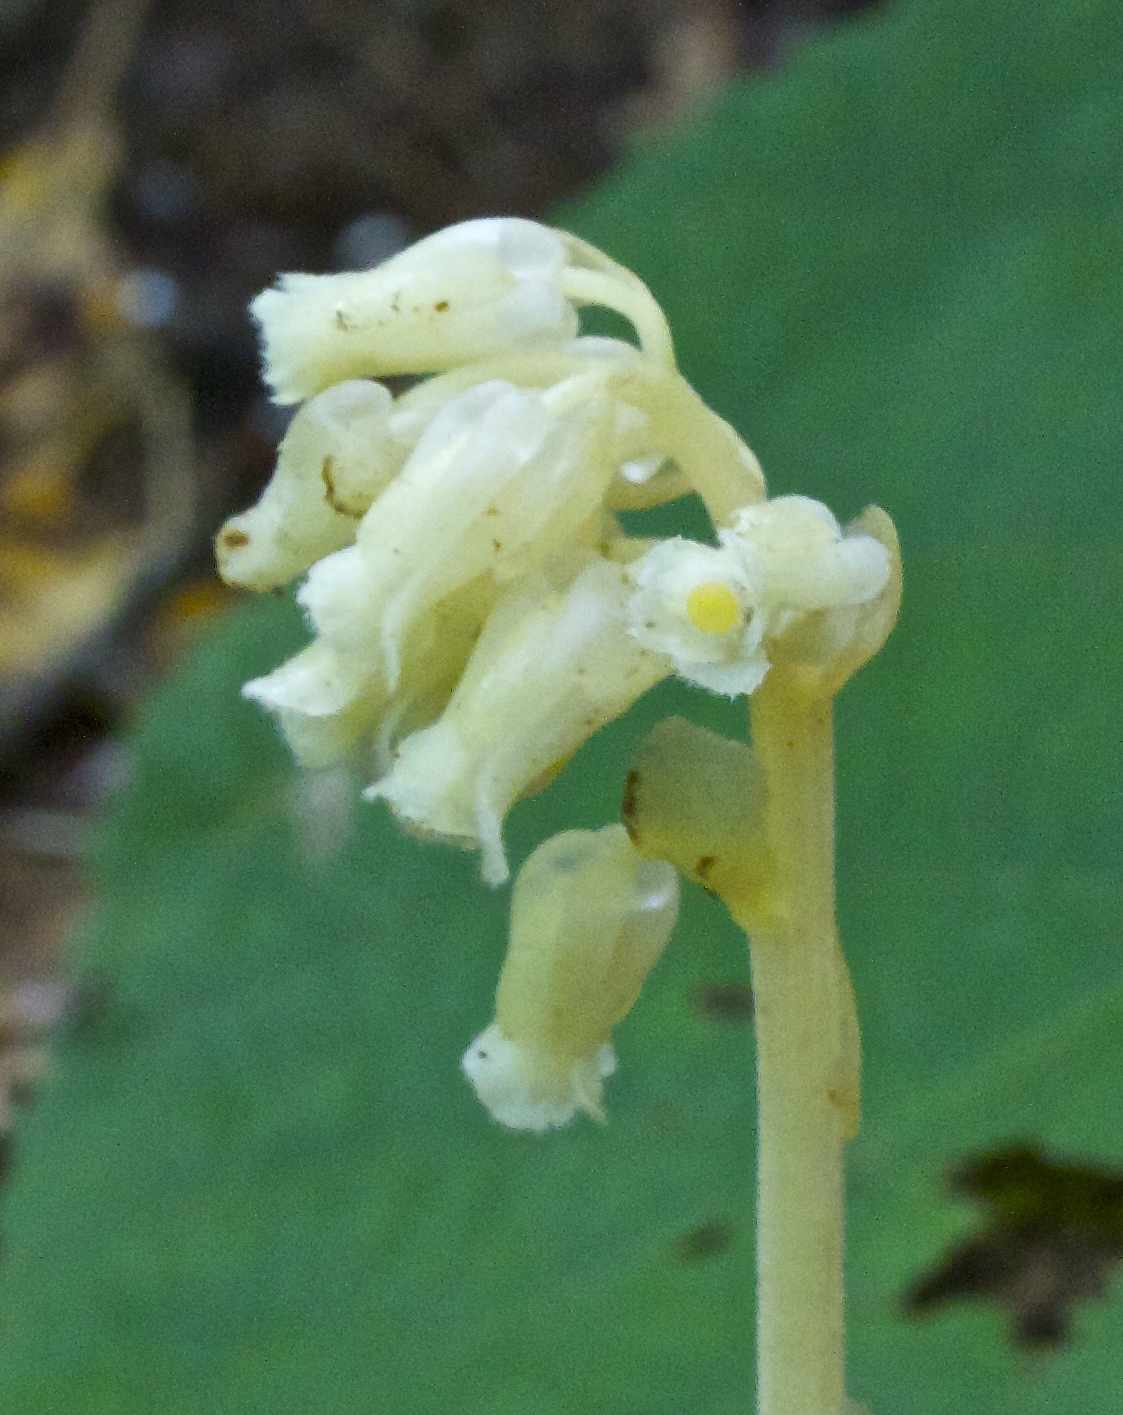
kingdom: Plantae
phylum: Tracheophyta
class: Magnoliopsida
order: Ericales
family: Ericaceae
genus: Hypopitys
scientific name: Hypopitys monotropa
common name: Yellow bird's-nest
